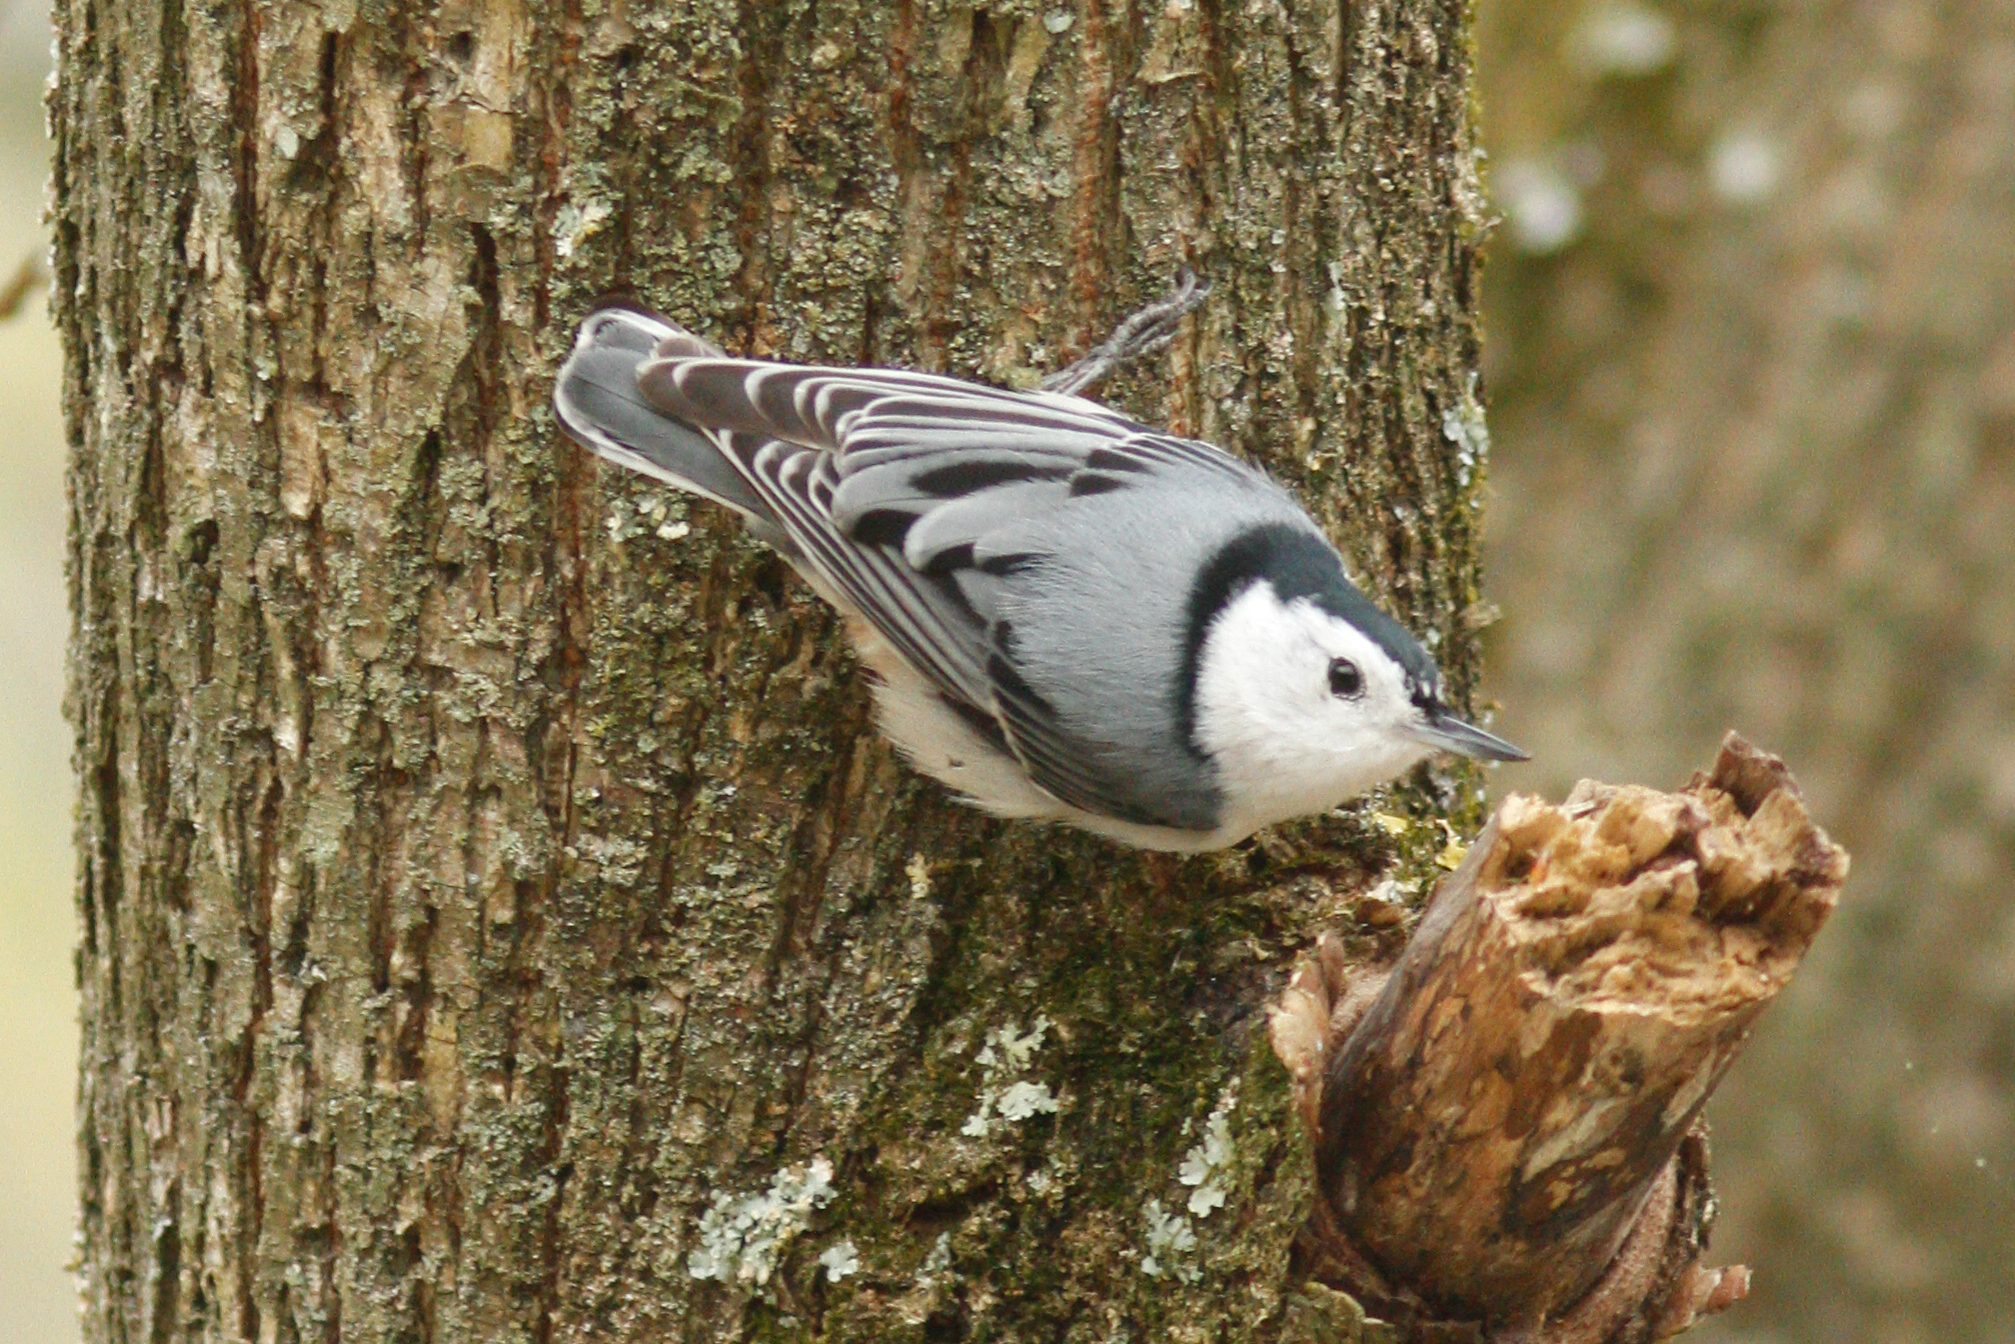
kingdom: Animalia
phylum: Chordata
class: Aves
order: Passeriformes
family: Sittidae
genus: Sitta
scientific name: Sitta carolinensis
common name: White-breasted nuthatch
